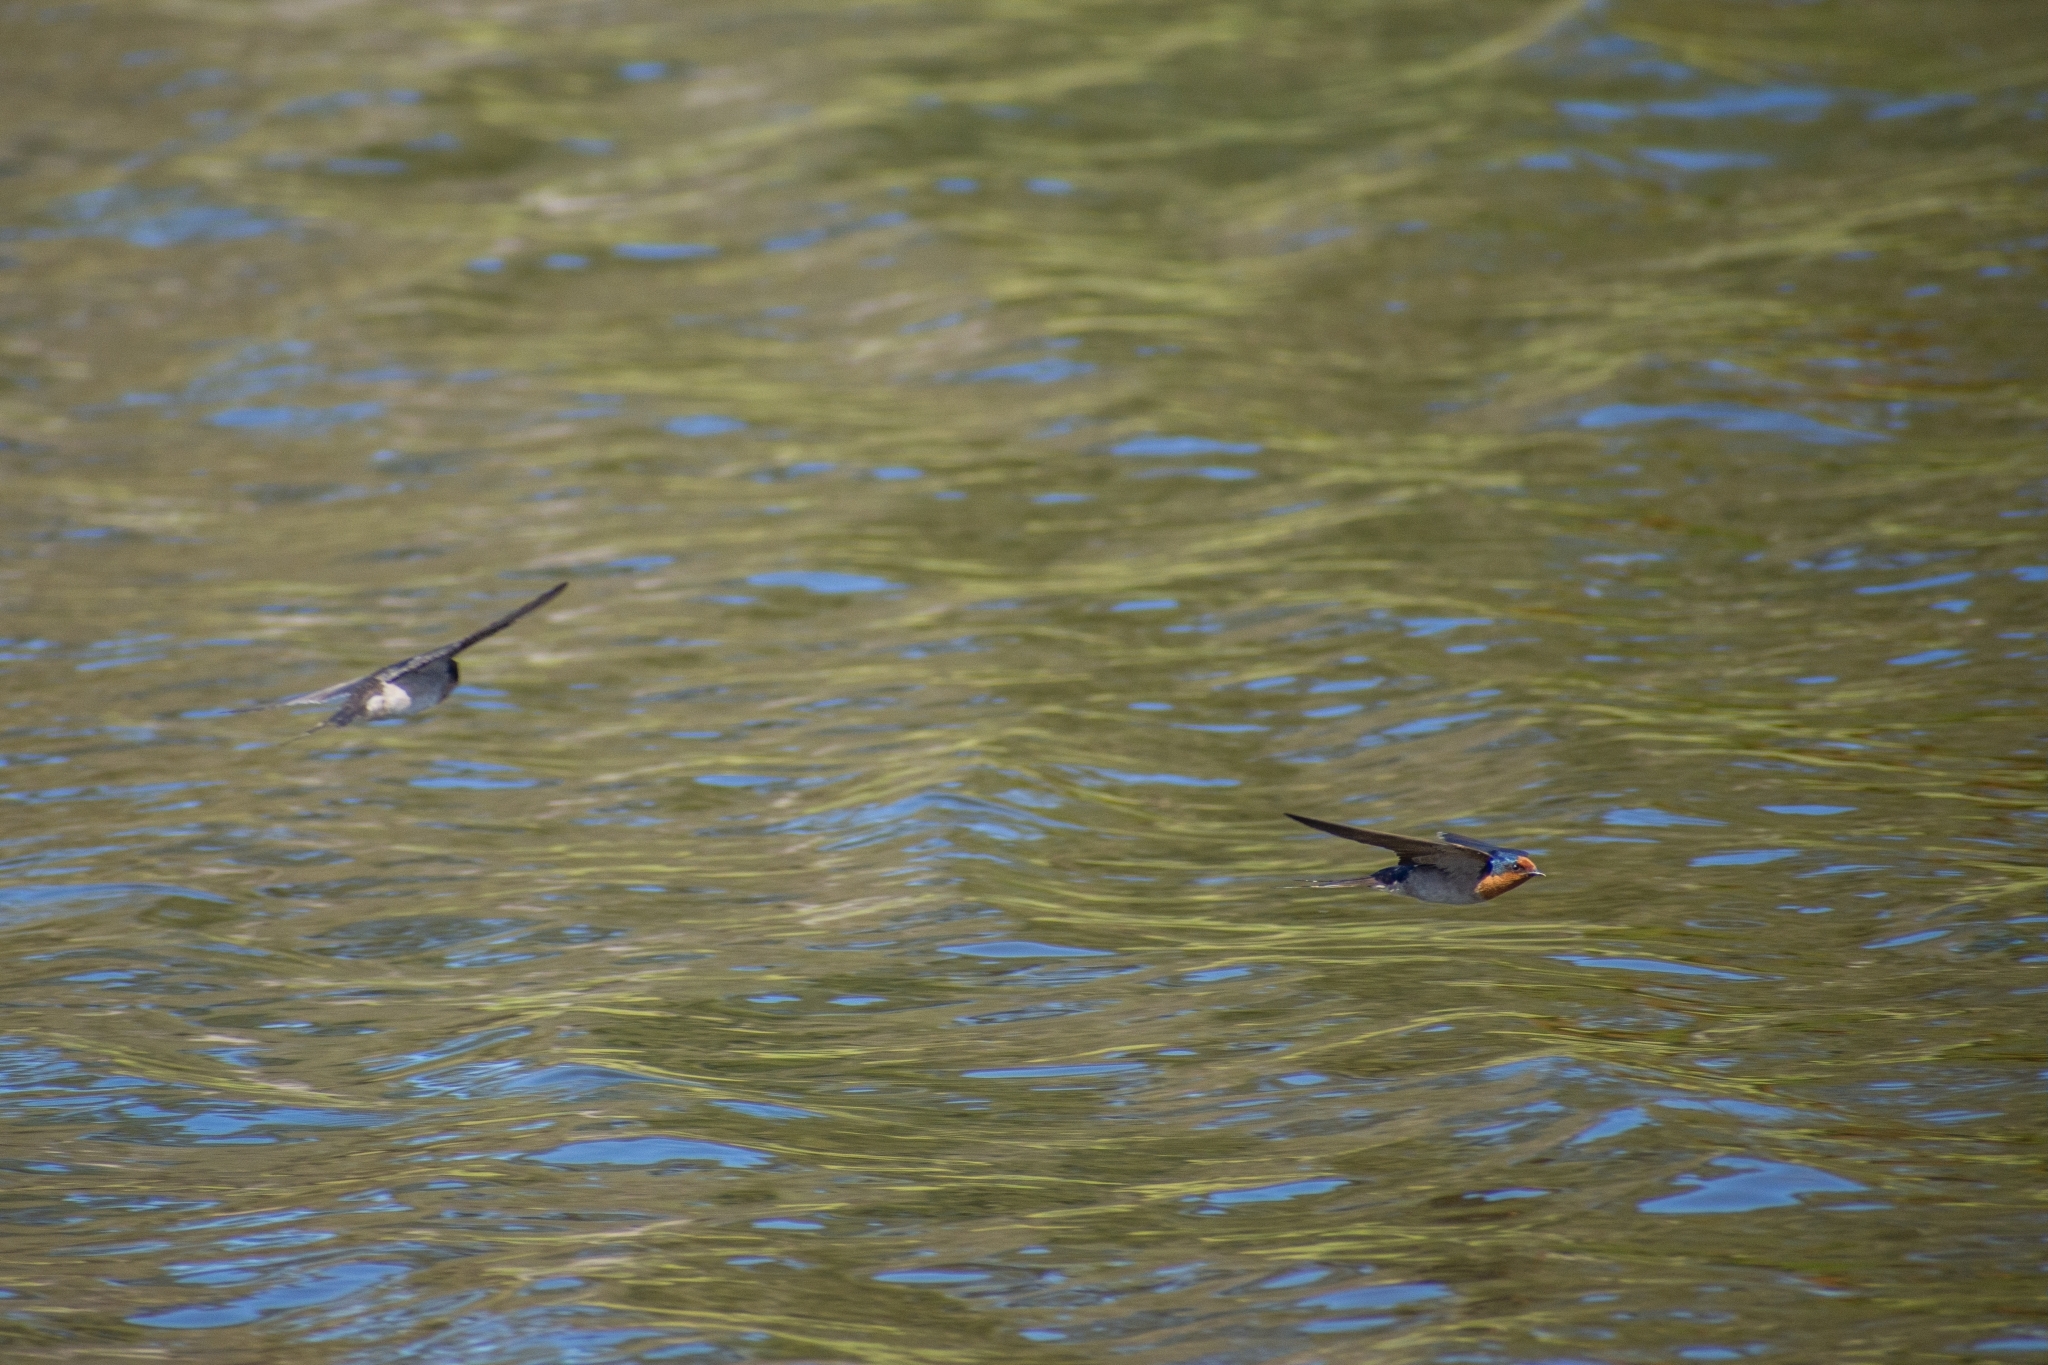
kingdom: Animalia
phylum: Chordata
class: Aves
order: Passeriformes
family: Hirundinidae
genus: Hirundo
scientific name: Hirundo neoxena
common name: Welcome swallow
